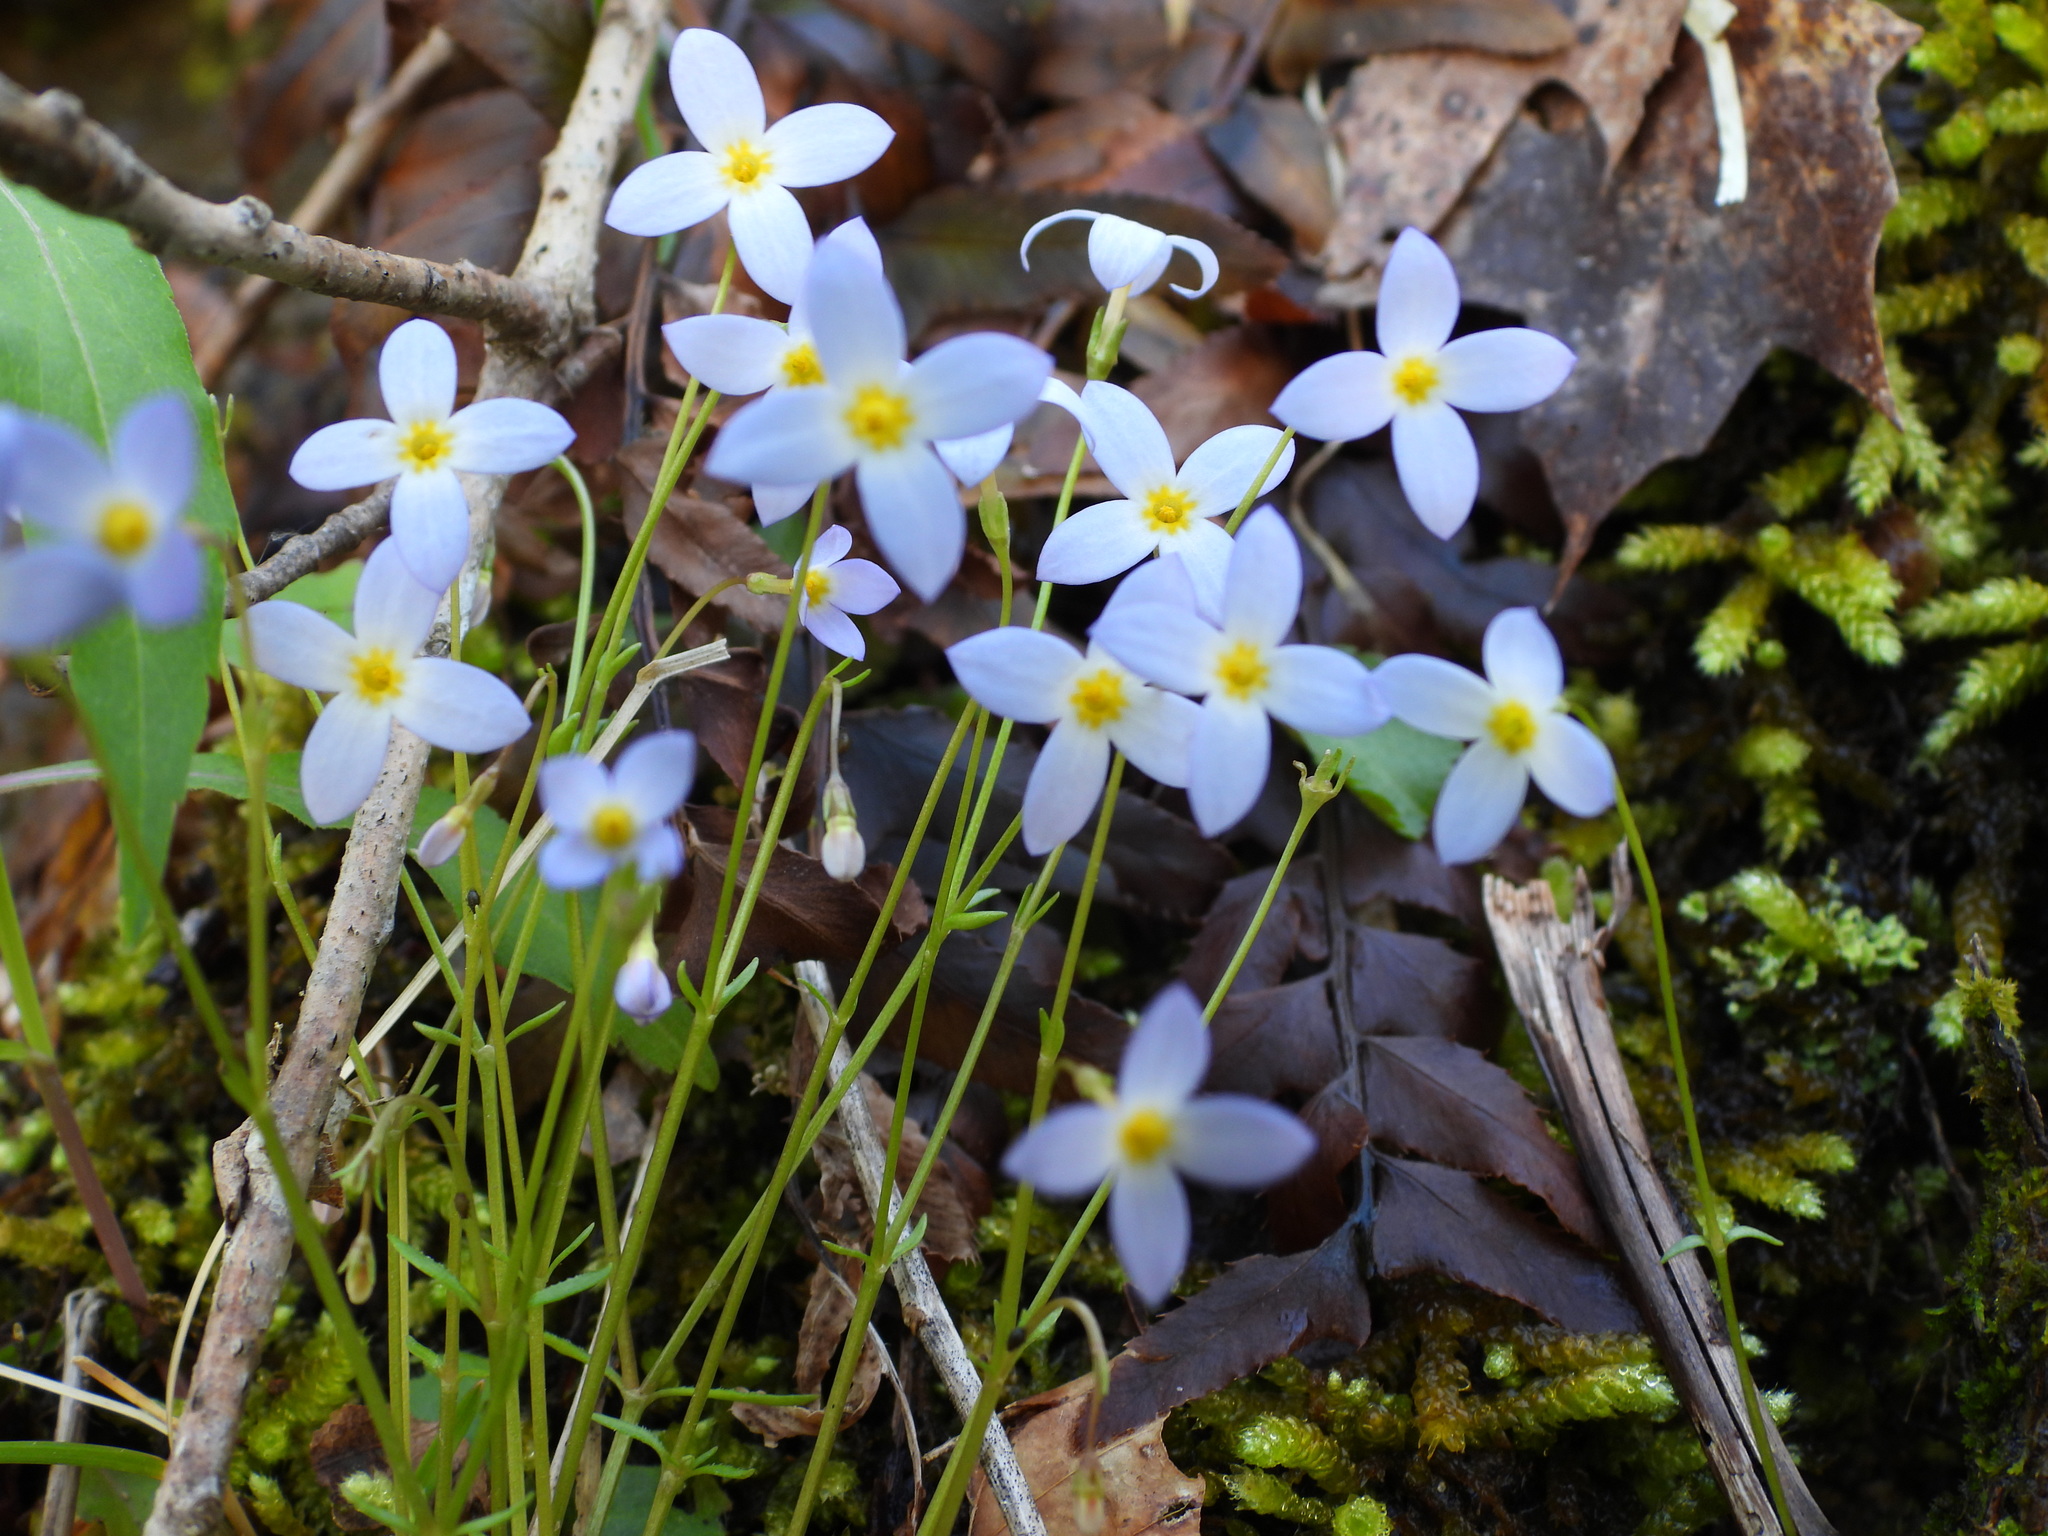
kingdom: Plantae
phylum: Tracheophyta
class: Magnoliopsida
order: Gentianales
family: Rubiaceae
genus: Houstonia
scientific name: Houstonia caerulea
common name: Bluets
